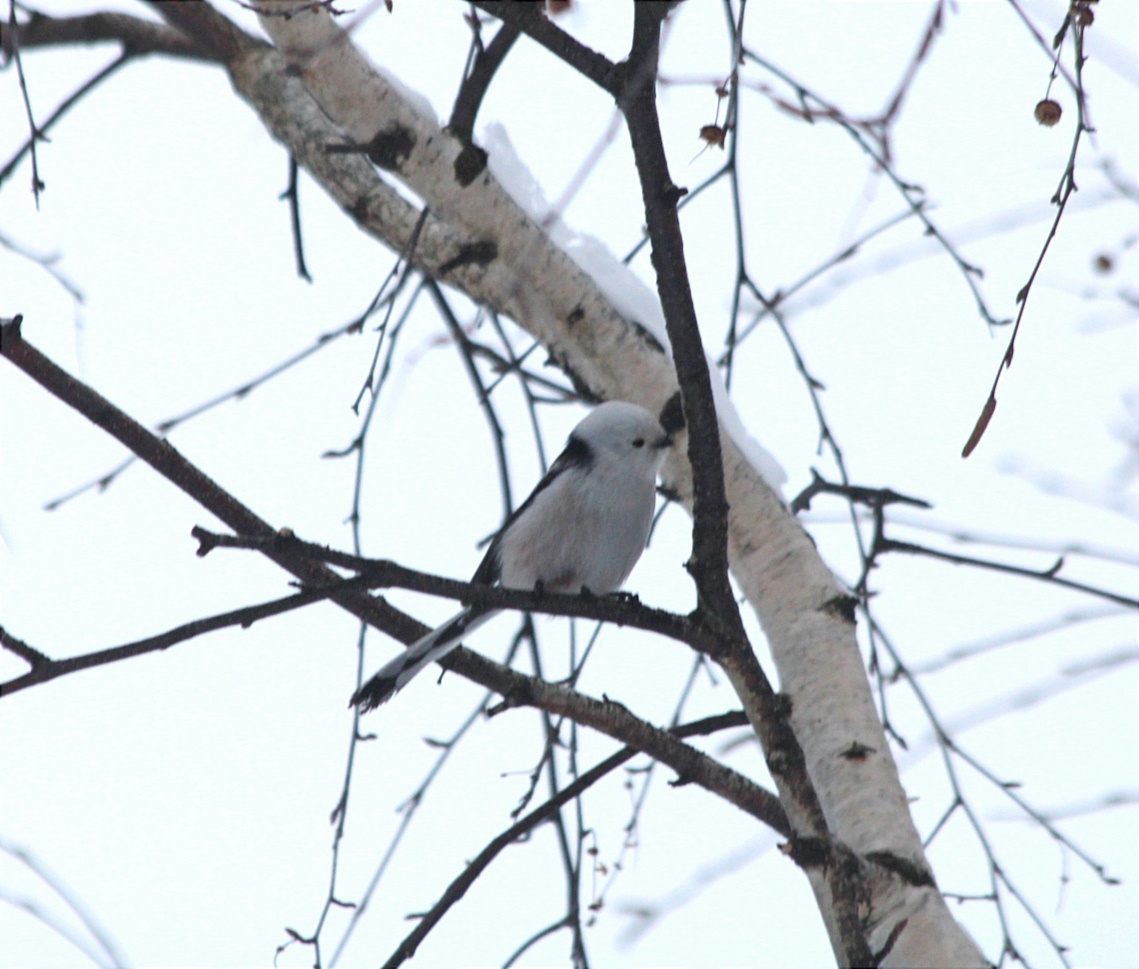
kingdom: Animalia
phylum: Chordata
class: Aves
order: Passeriformes
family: Aegithalidae
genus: Aegithalos
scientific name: Aegithalos caudatus
